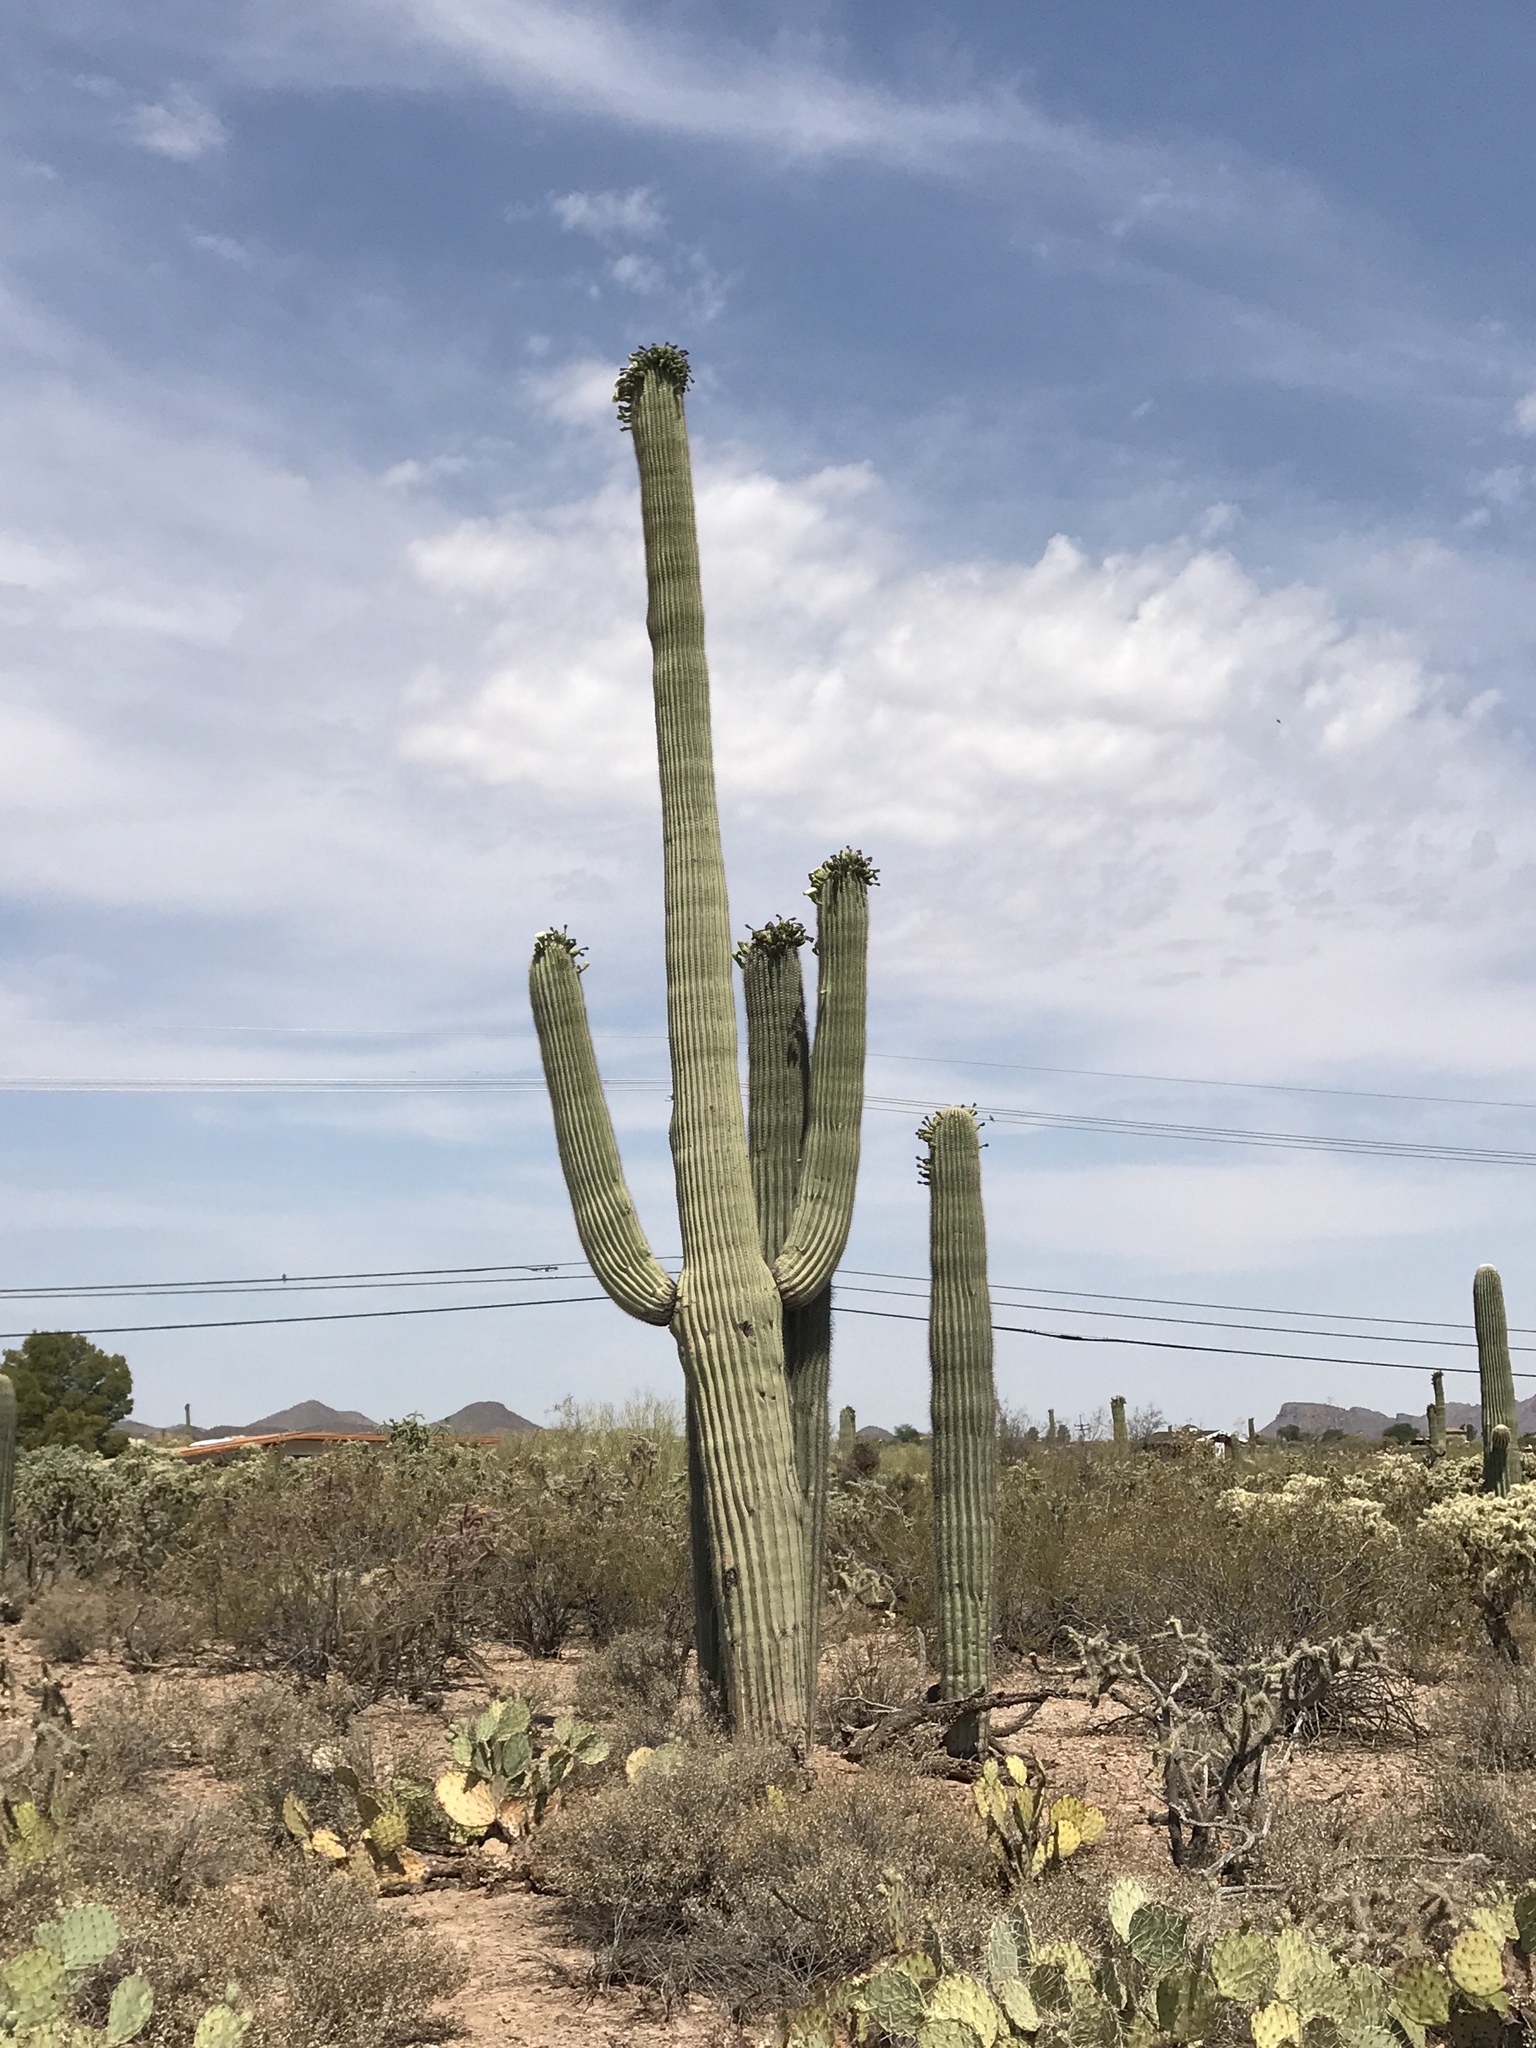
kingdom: Plantae
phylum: Tracheophyta
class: Magnoliopsida
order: Caryophyllales
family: Cactaceae
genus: Carnegiea
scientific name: Carnegiea gigantea
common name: Saguaro
